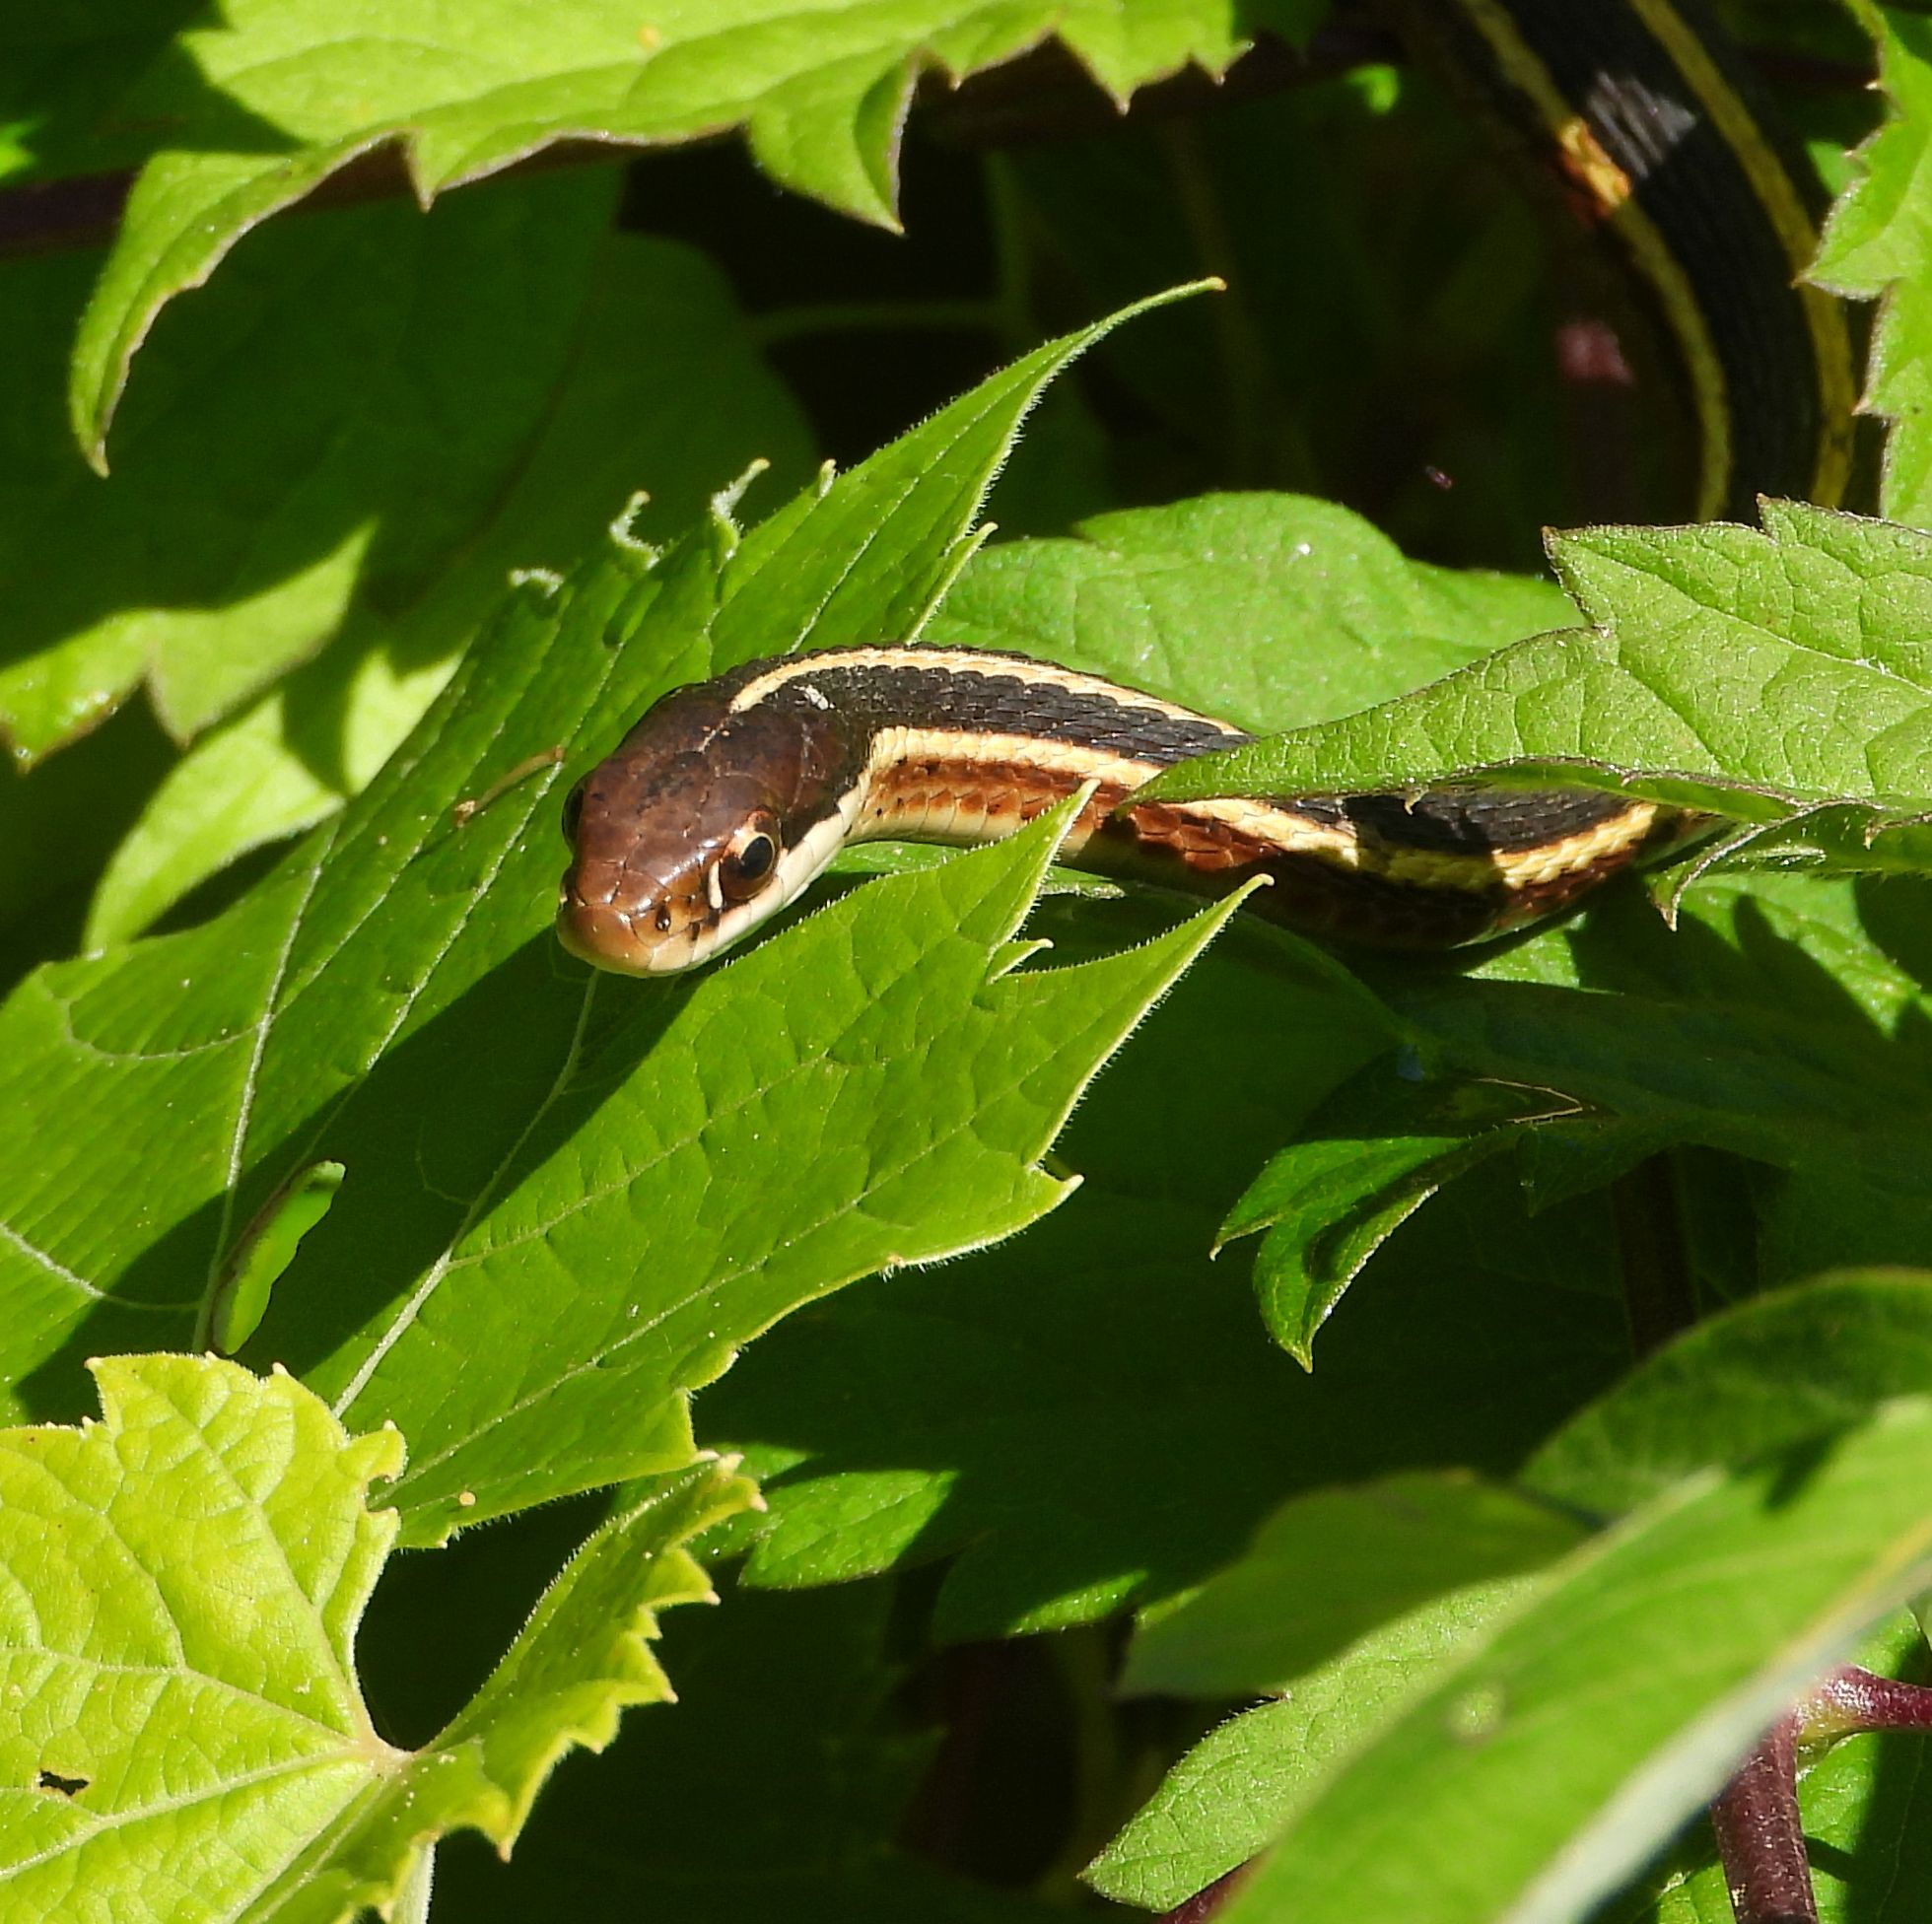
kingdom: Animalia
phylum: Chordata
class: Squamata
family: Colubridae
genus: Thamnophis
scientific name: Thamnophis saurita
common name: Eastern ribbonsnake
